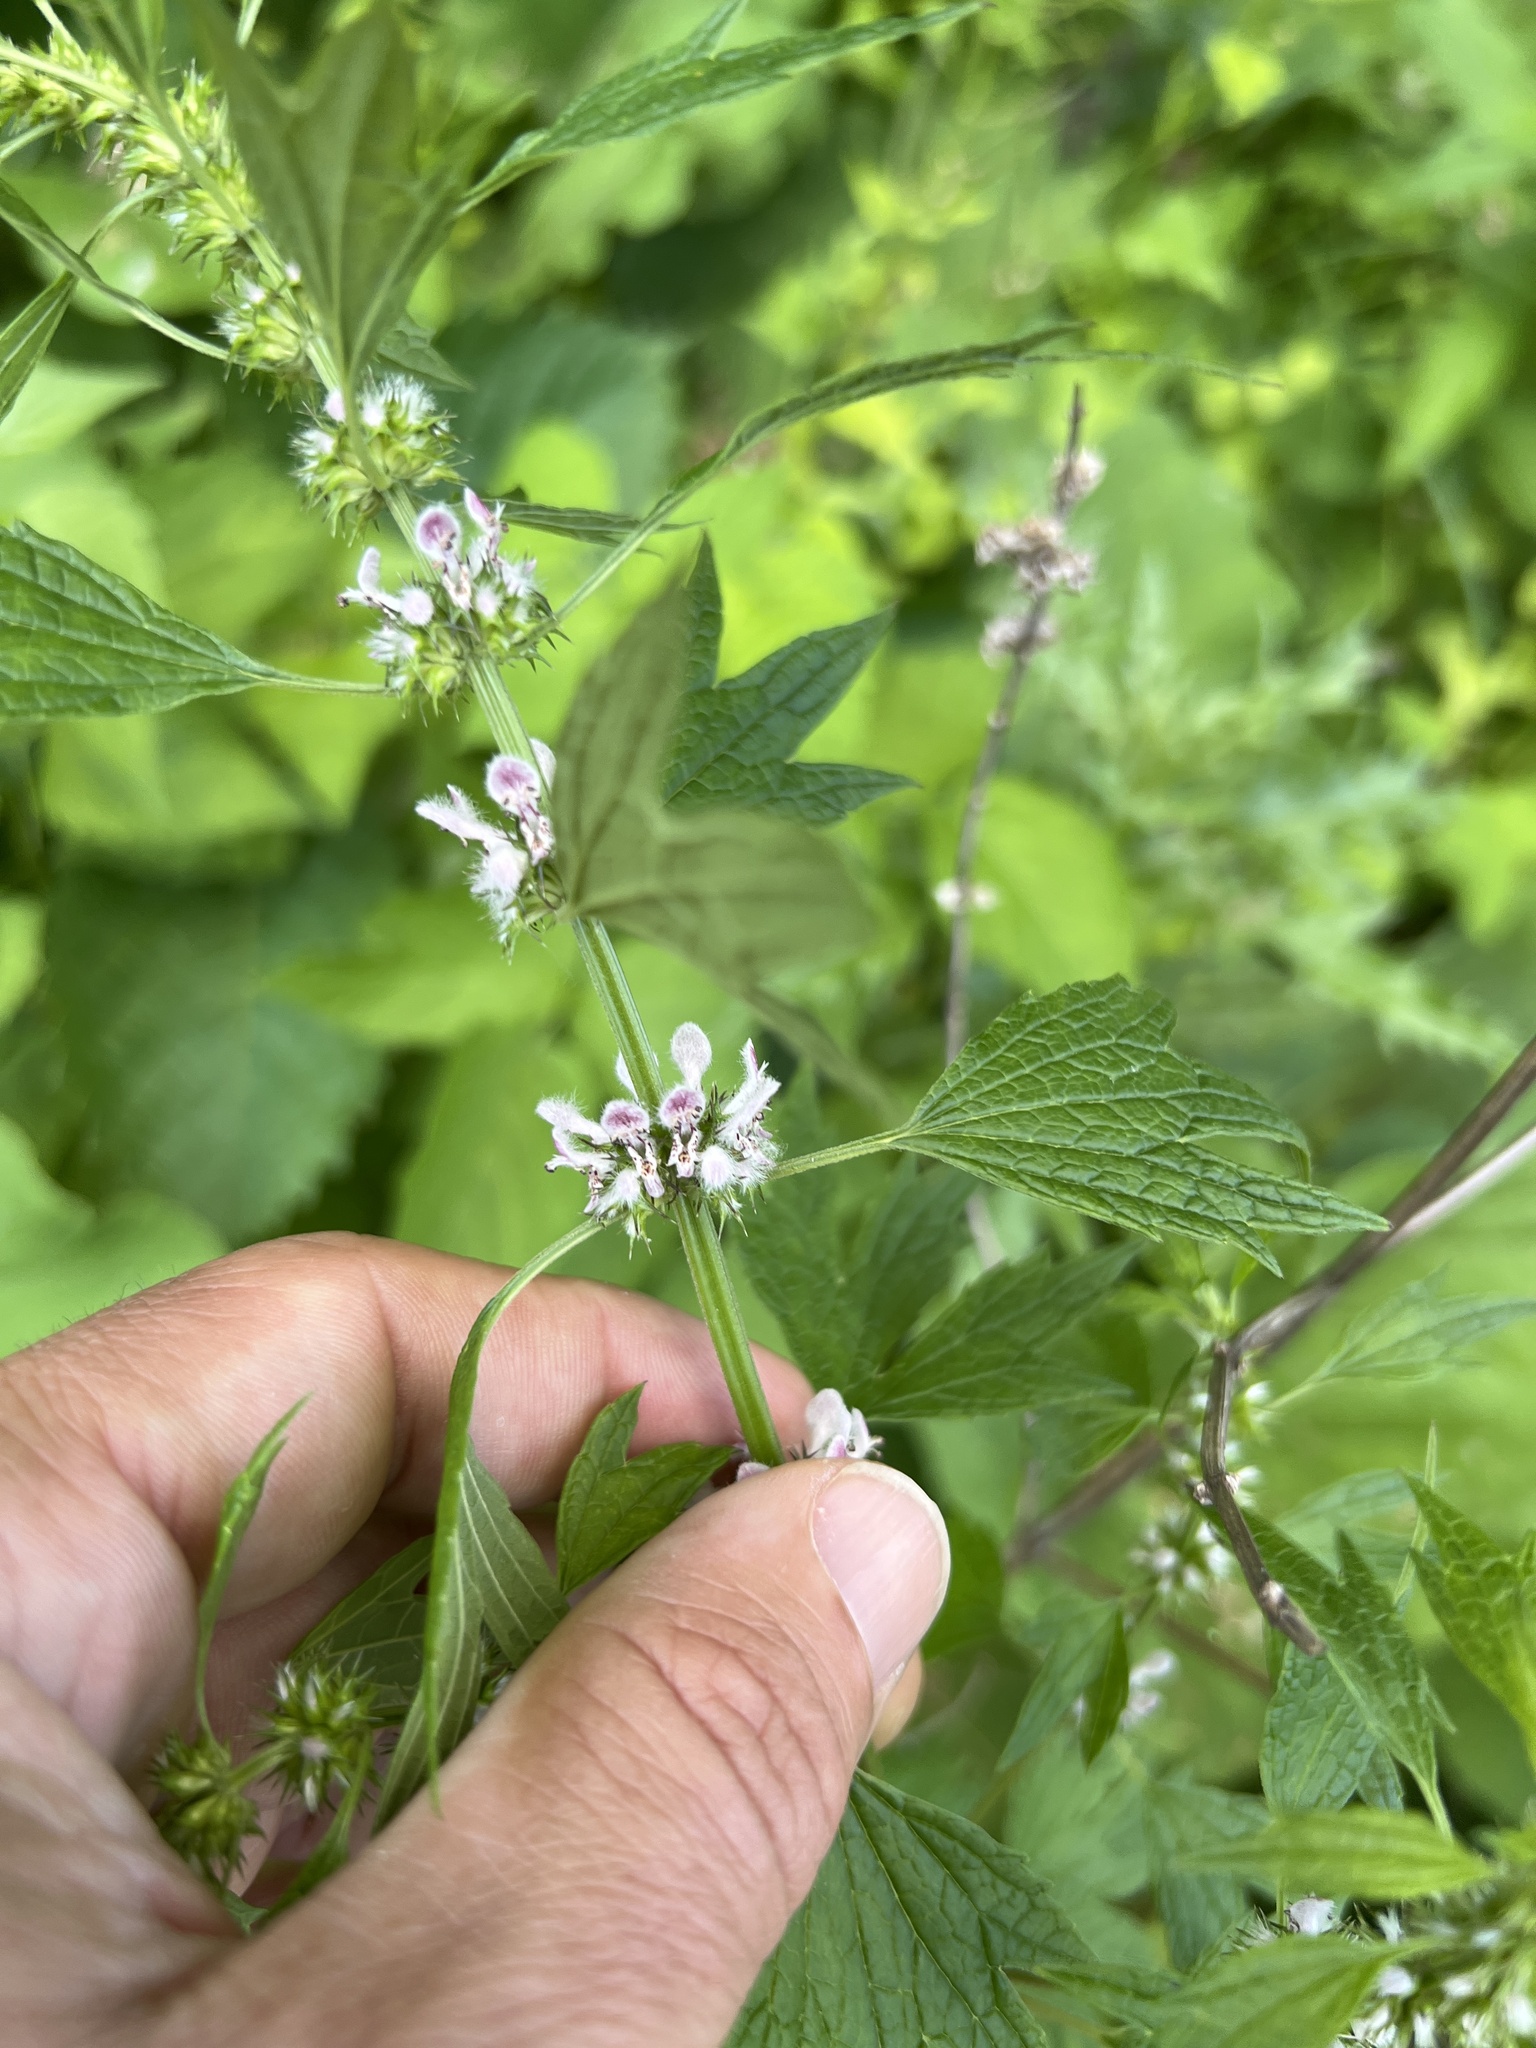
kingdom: Plantae
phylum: Tracheophyta
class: Magnoliopsida
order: Lamiales
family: Lamiaceae
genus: Leonurus
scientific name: Leonurus cardiaca
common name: Motherwort
